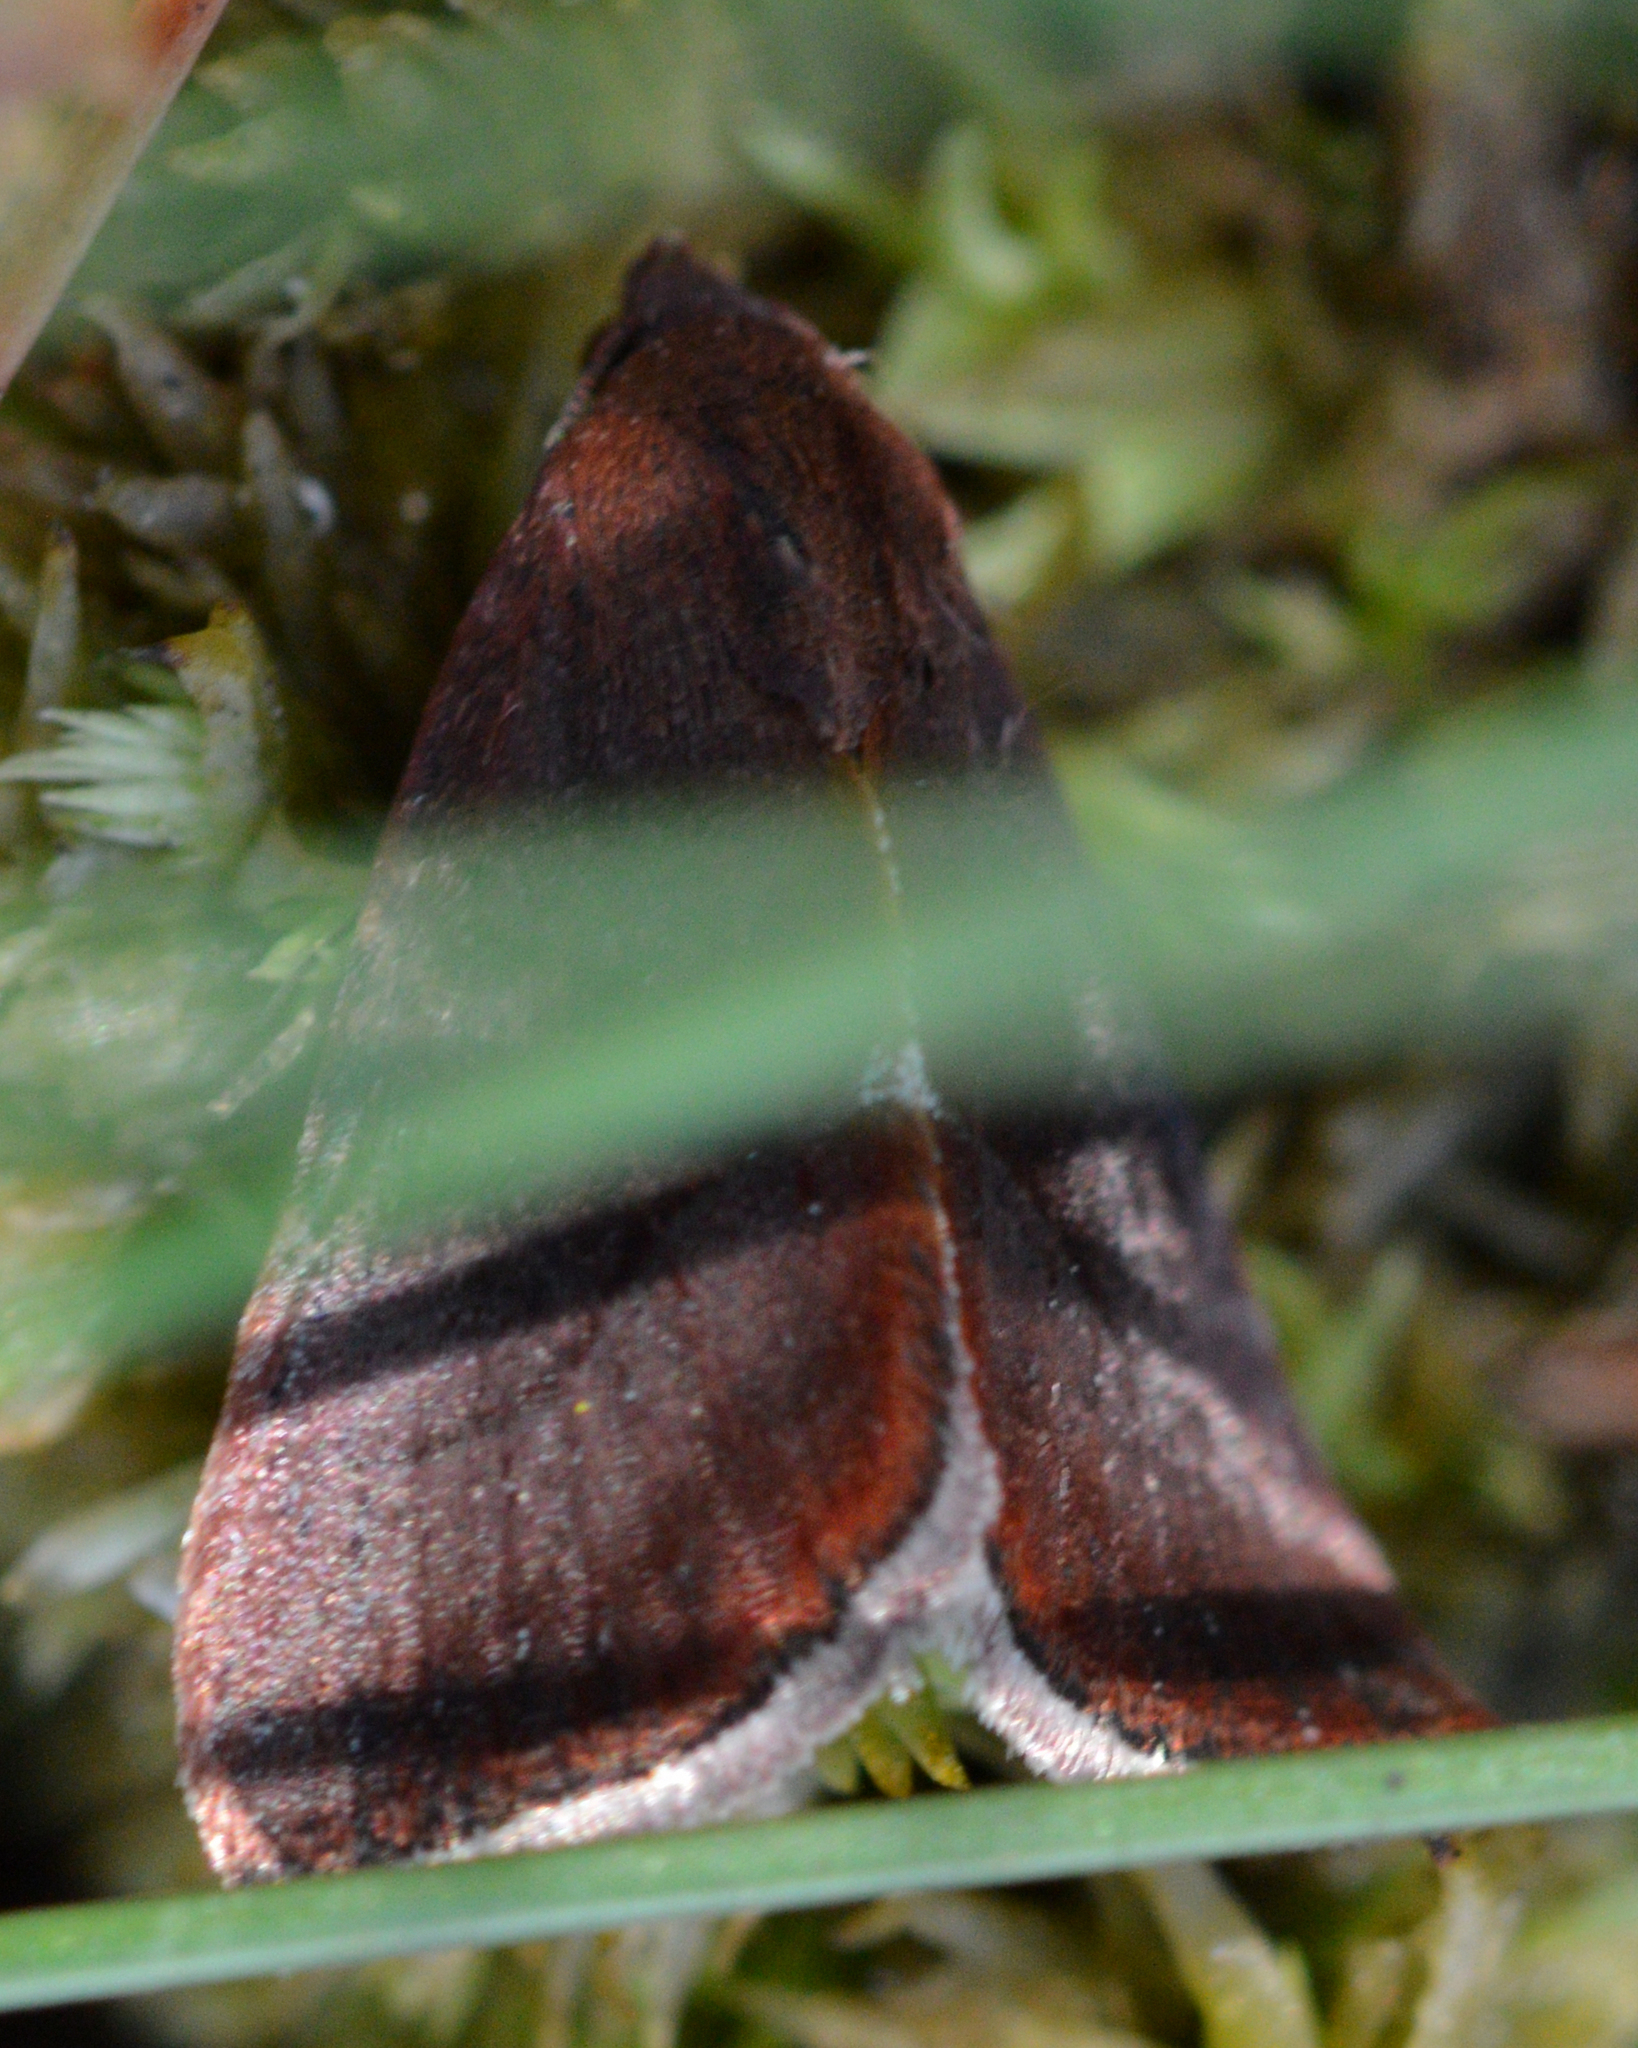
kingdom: Animalia
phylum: Arthropoda
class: Insecta
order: Lepidoptera
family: Noctuidae
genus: Galgula
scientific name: Galgula partita
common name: Wedgeling
